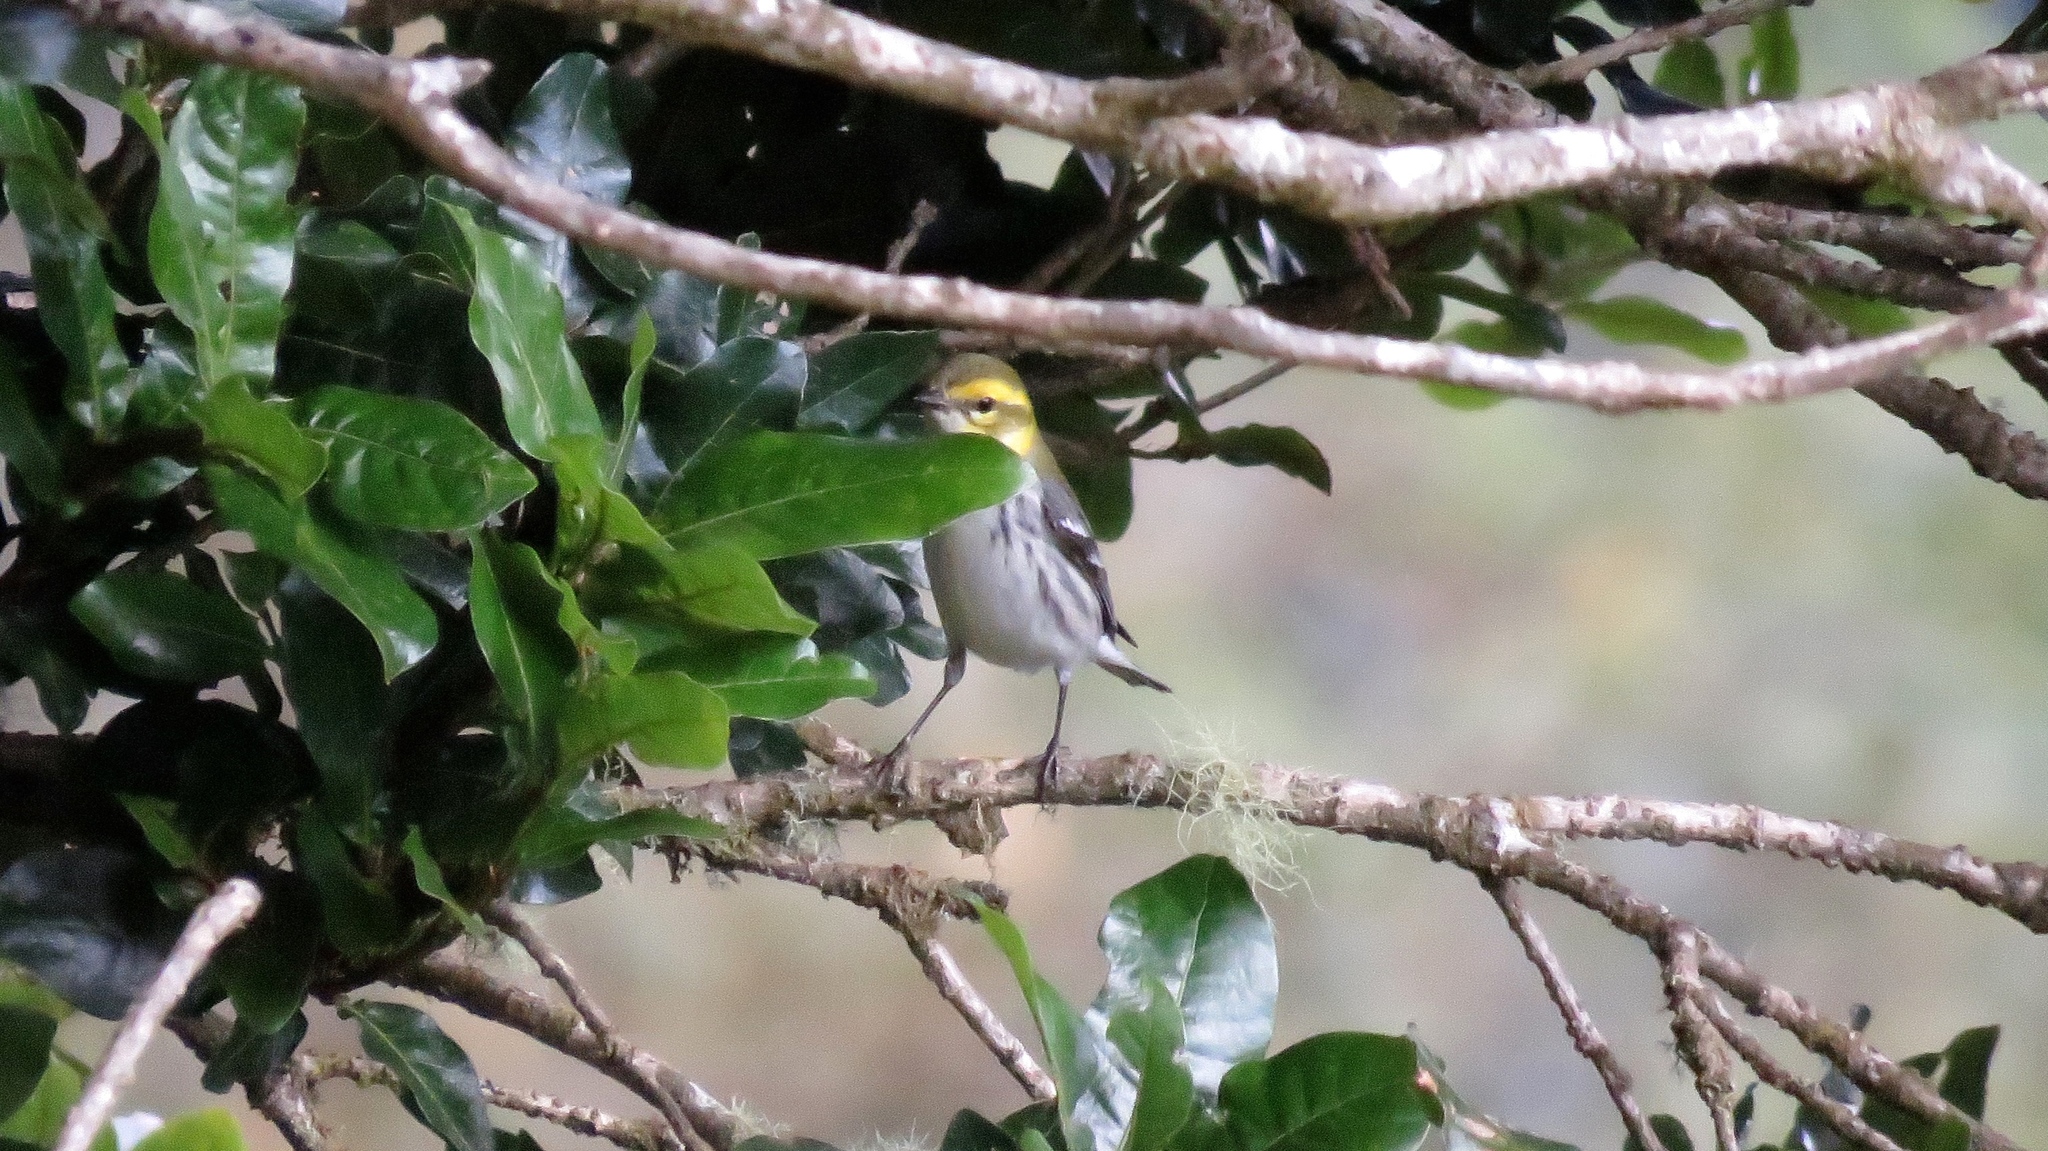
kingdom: Animalia
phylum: Chordata
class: Aves
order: Passeriformes
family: Parulidae
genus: Setophaga
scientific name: Setophaga
